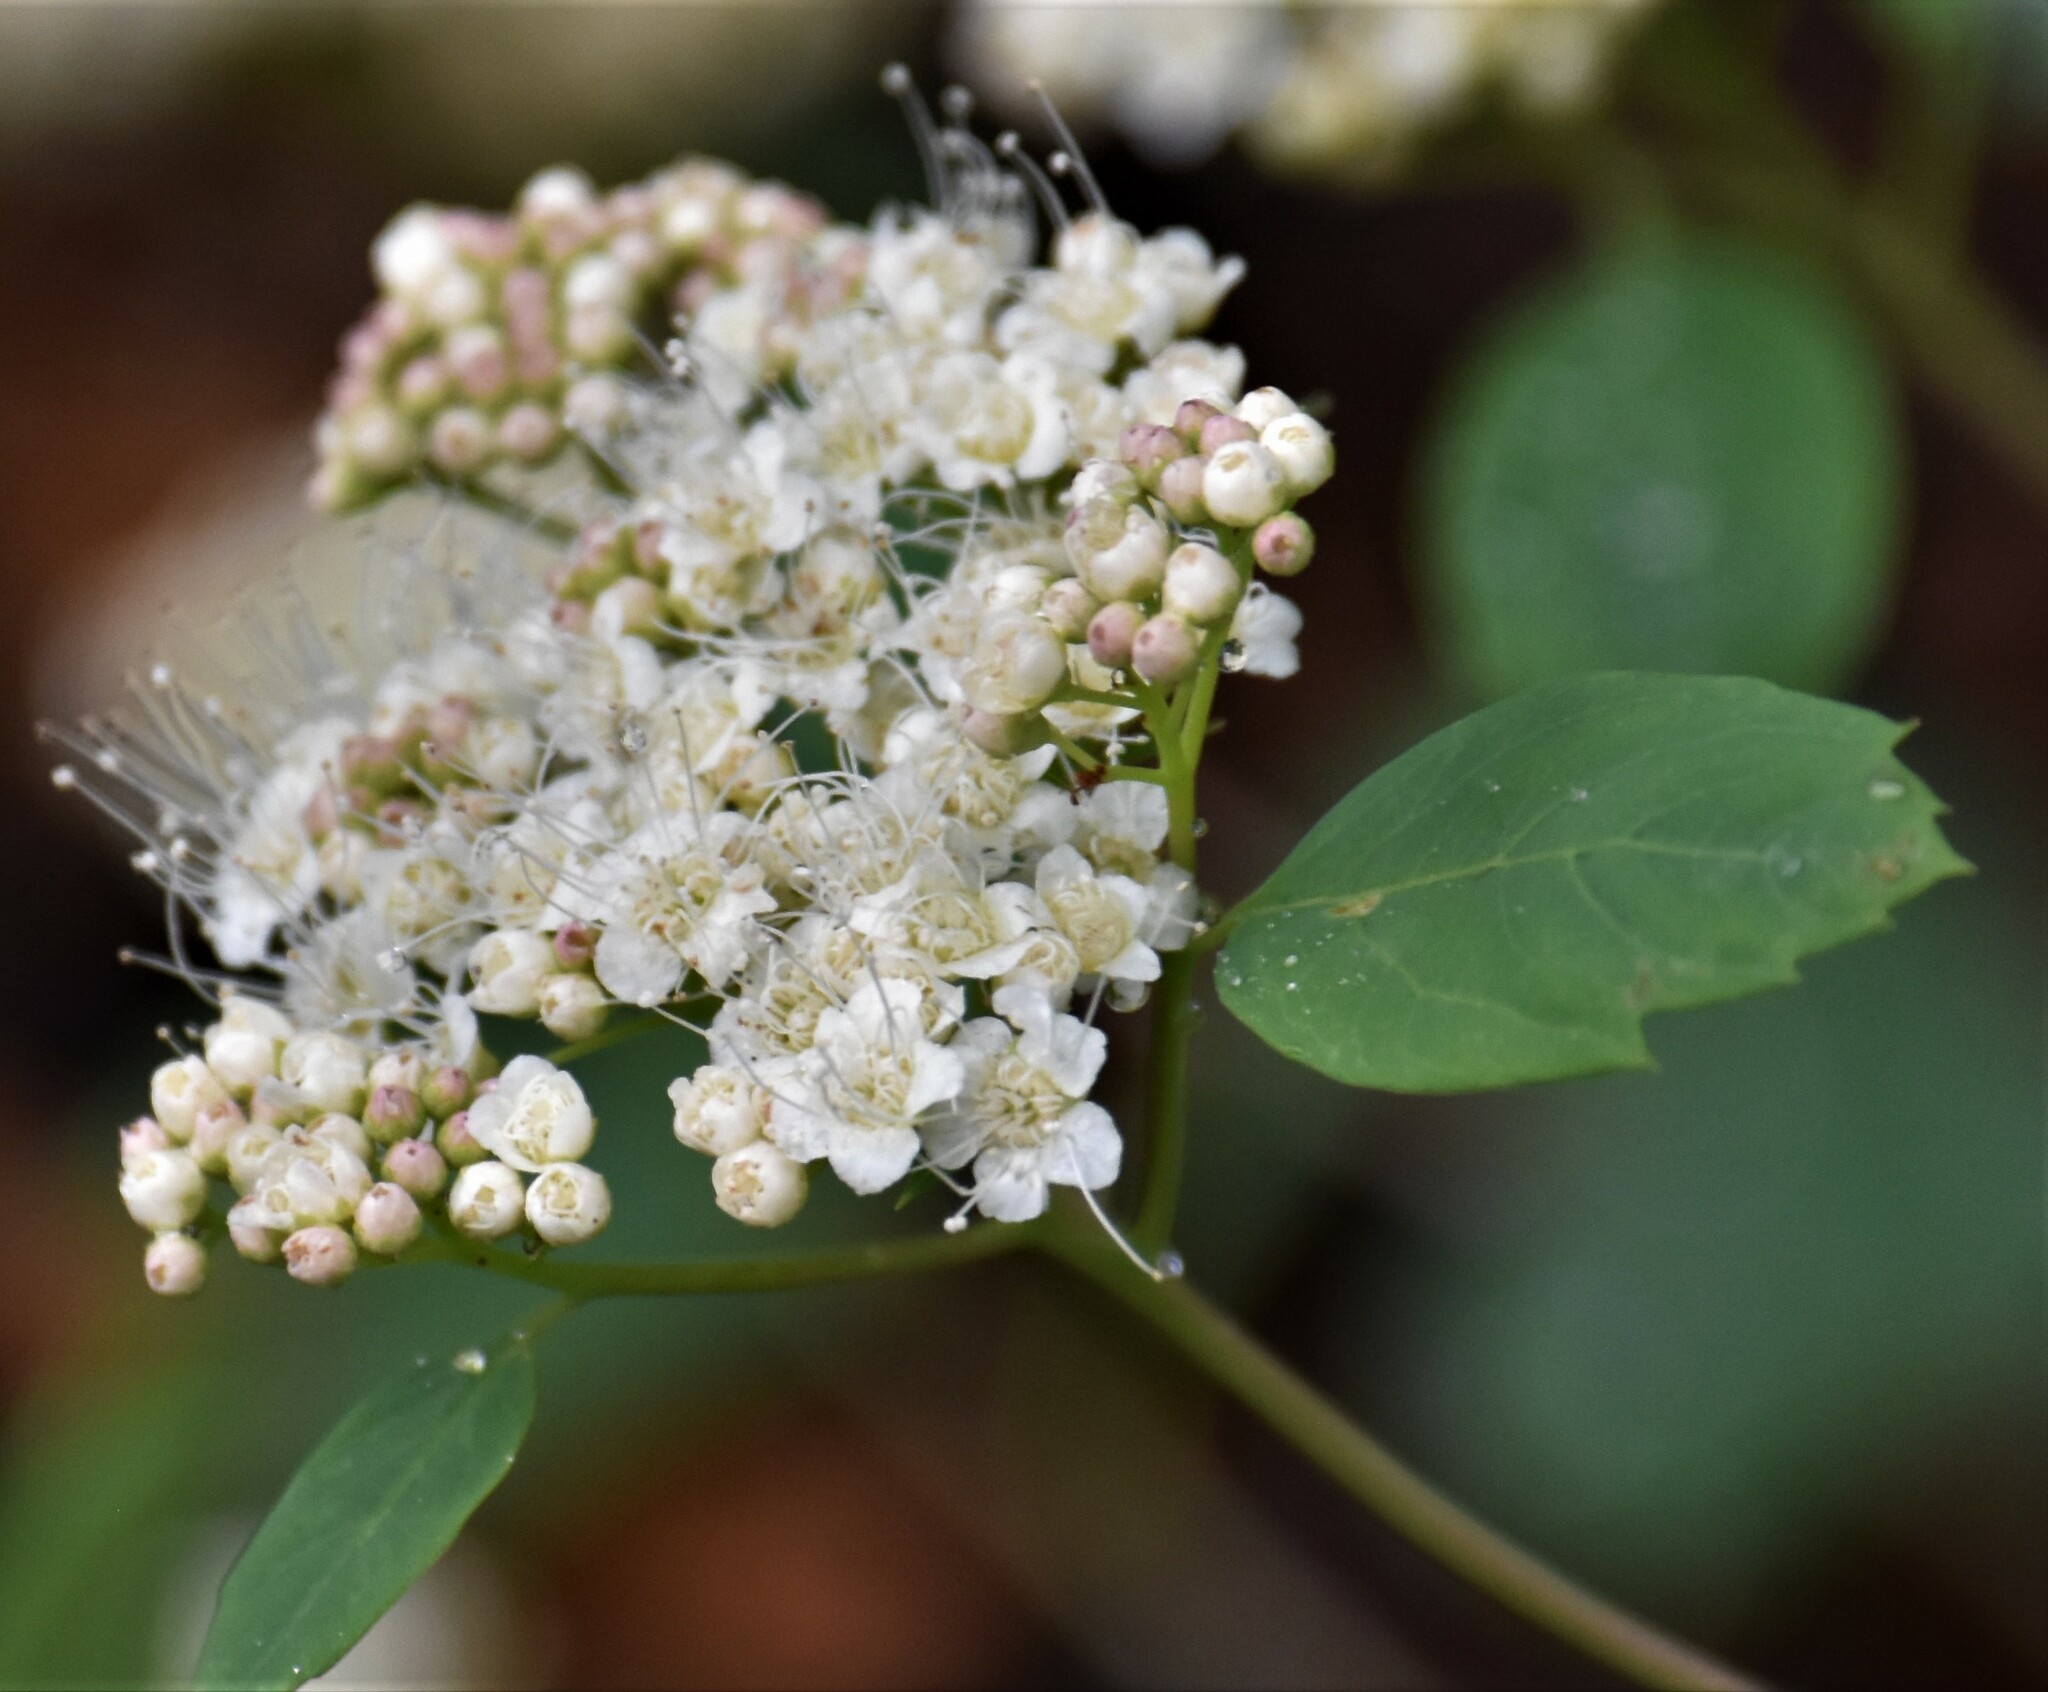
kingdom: Plantae
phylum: Tracheophyta
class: Magnoliopsida
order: Rosales
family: Rosaceae
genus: Spiraea
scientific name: Spiraea lucida
